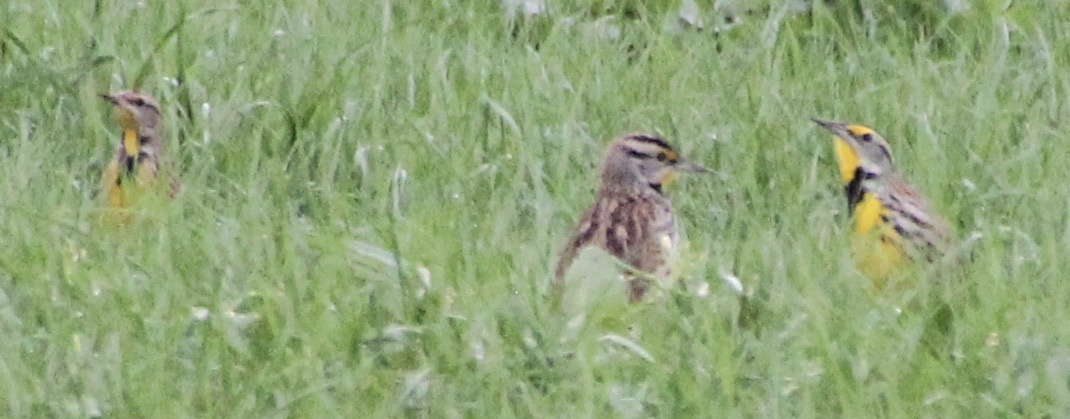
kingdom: Animalia
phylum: Chordata
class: Aves
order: Passeriformes
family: Icteridae
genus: Sturnella
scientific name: Sturnella magna
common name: Eastern meadowlark
